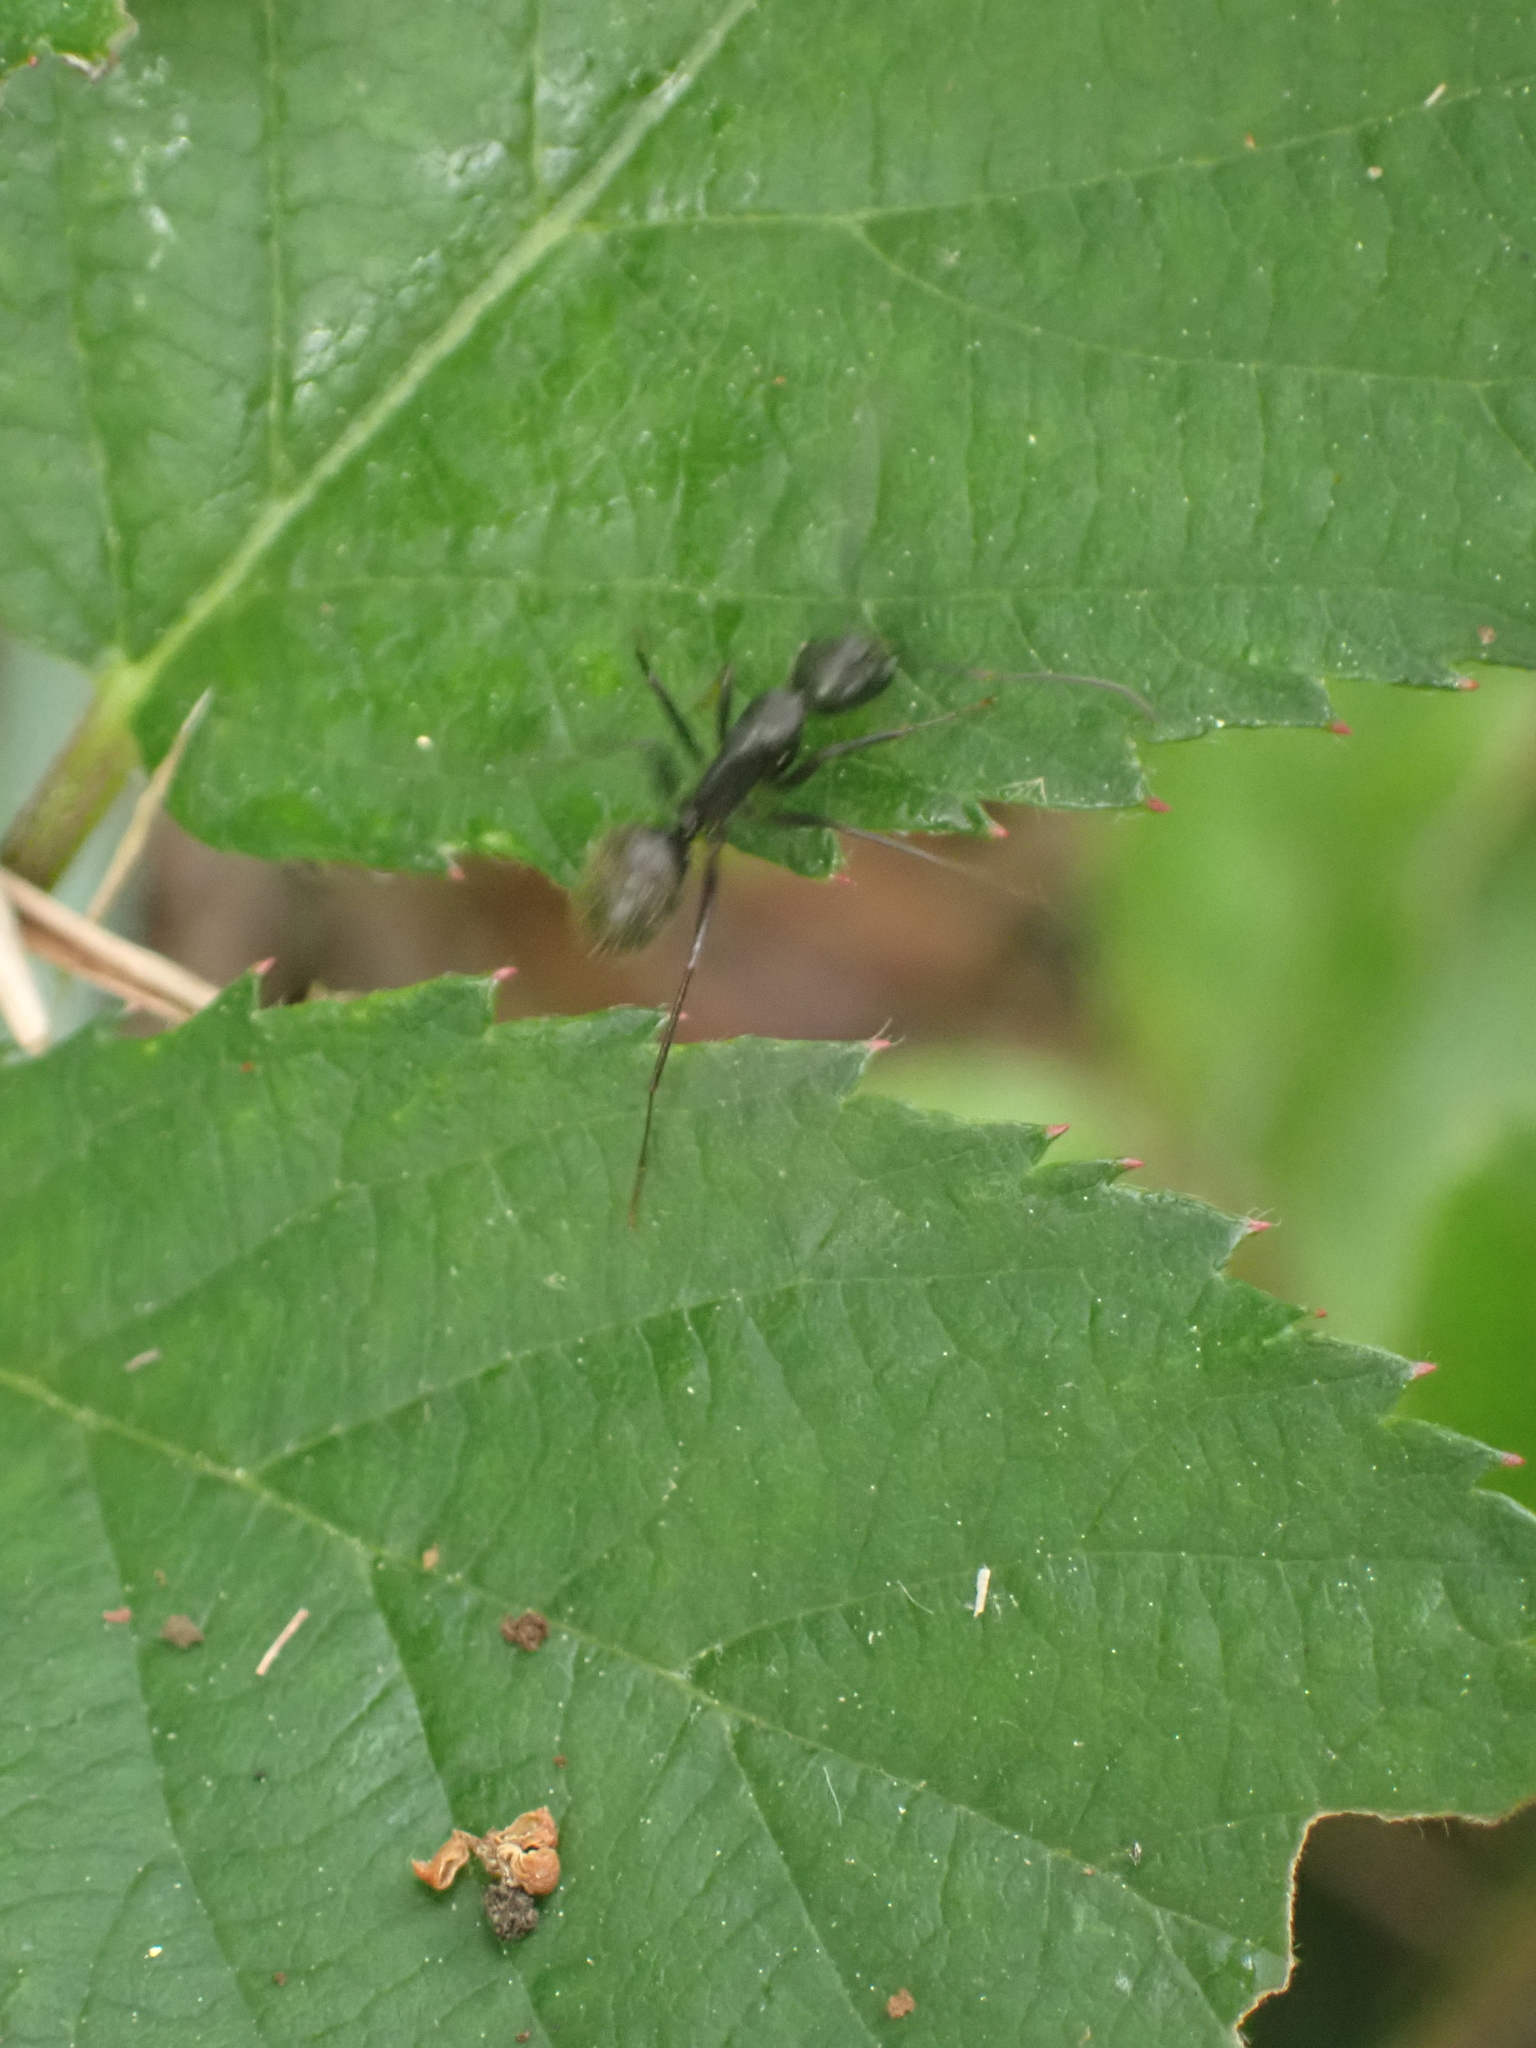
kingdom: Animalia
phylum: Arthropoda
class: Insecta
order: Hymenoptera
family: Formicidae
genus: Camponotus
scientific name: Camponotus pennsylvanicus
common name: Black carpenter ant
